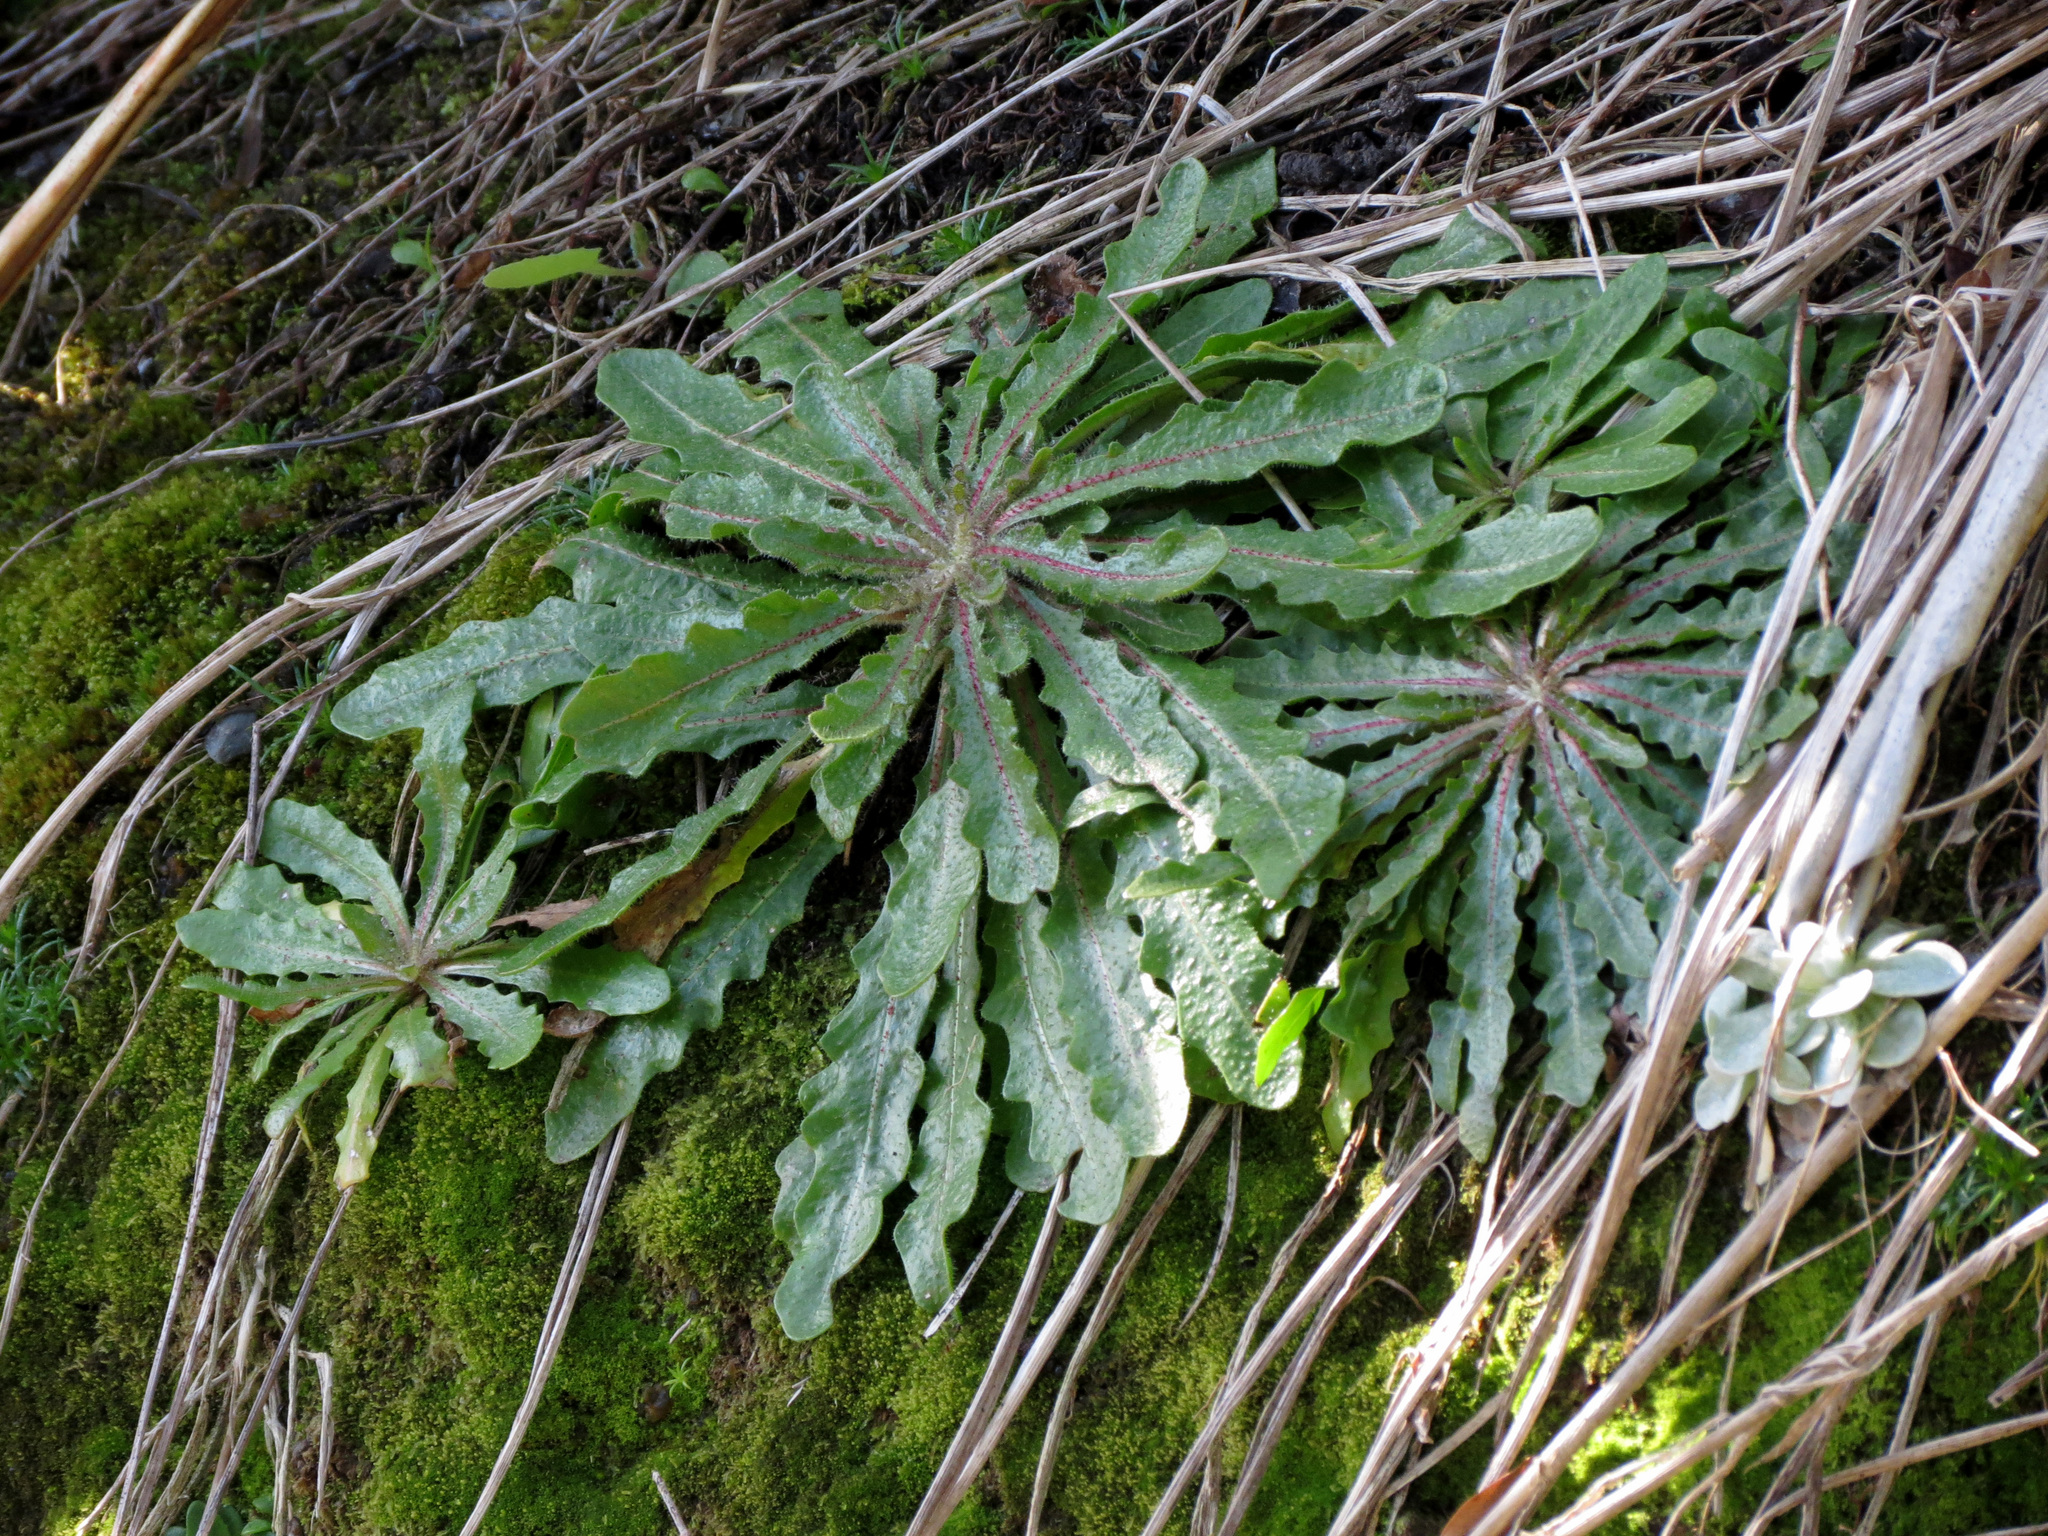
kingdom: Plantae
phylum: Tracheophyta
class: Magnoliopsida
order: Asterales
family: Asteraceae
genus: Hypochaeris
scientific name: Hypochaeris radicata
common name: Flatweed
